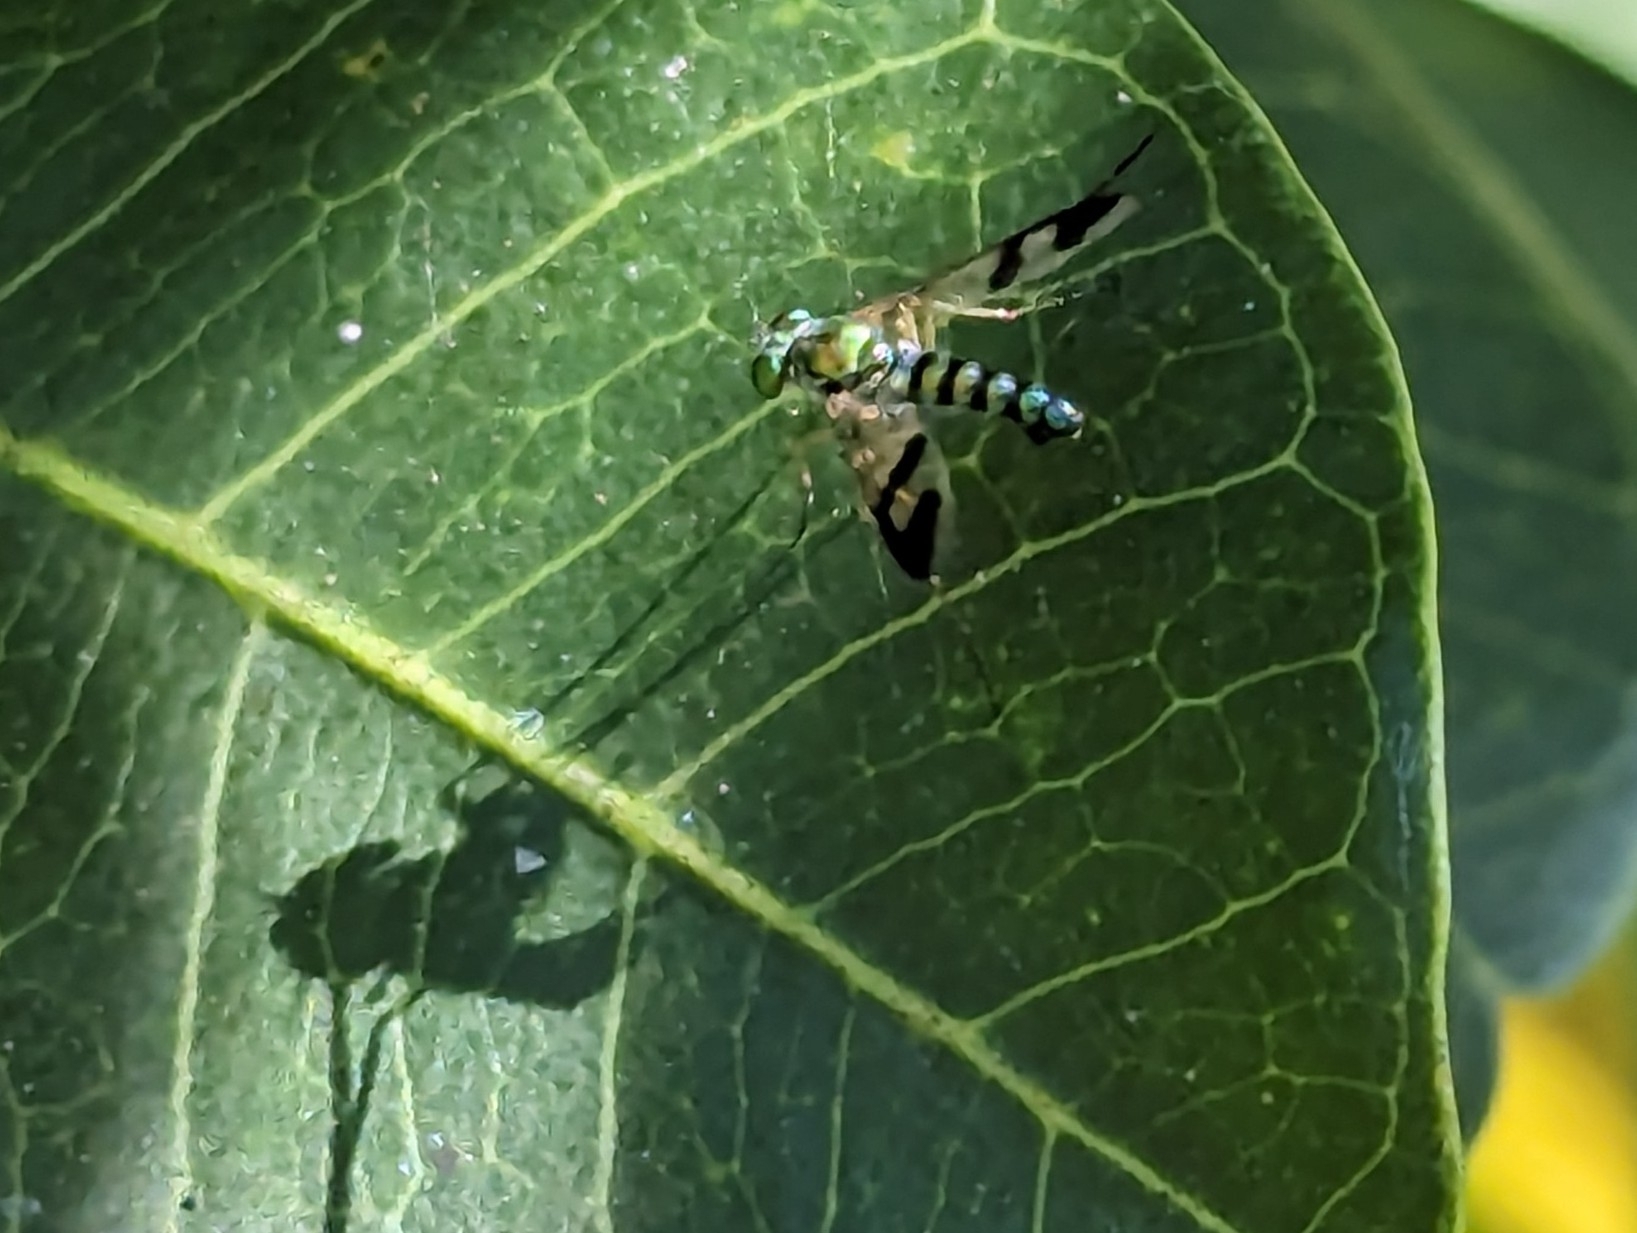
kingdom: Animalia
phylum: Arthropoda
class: Insecta
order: Diptera
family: Dolichopodidae
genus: Austrosciapus
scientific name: Austrosciapus
